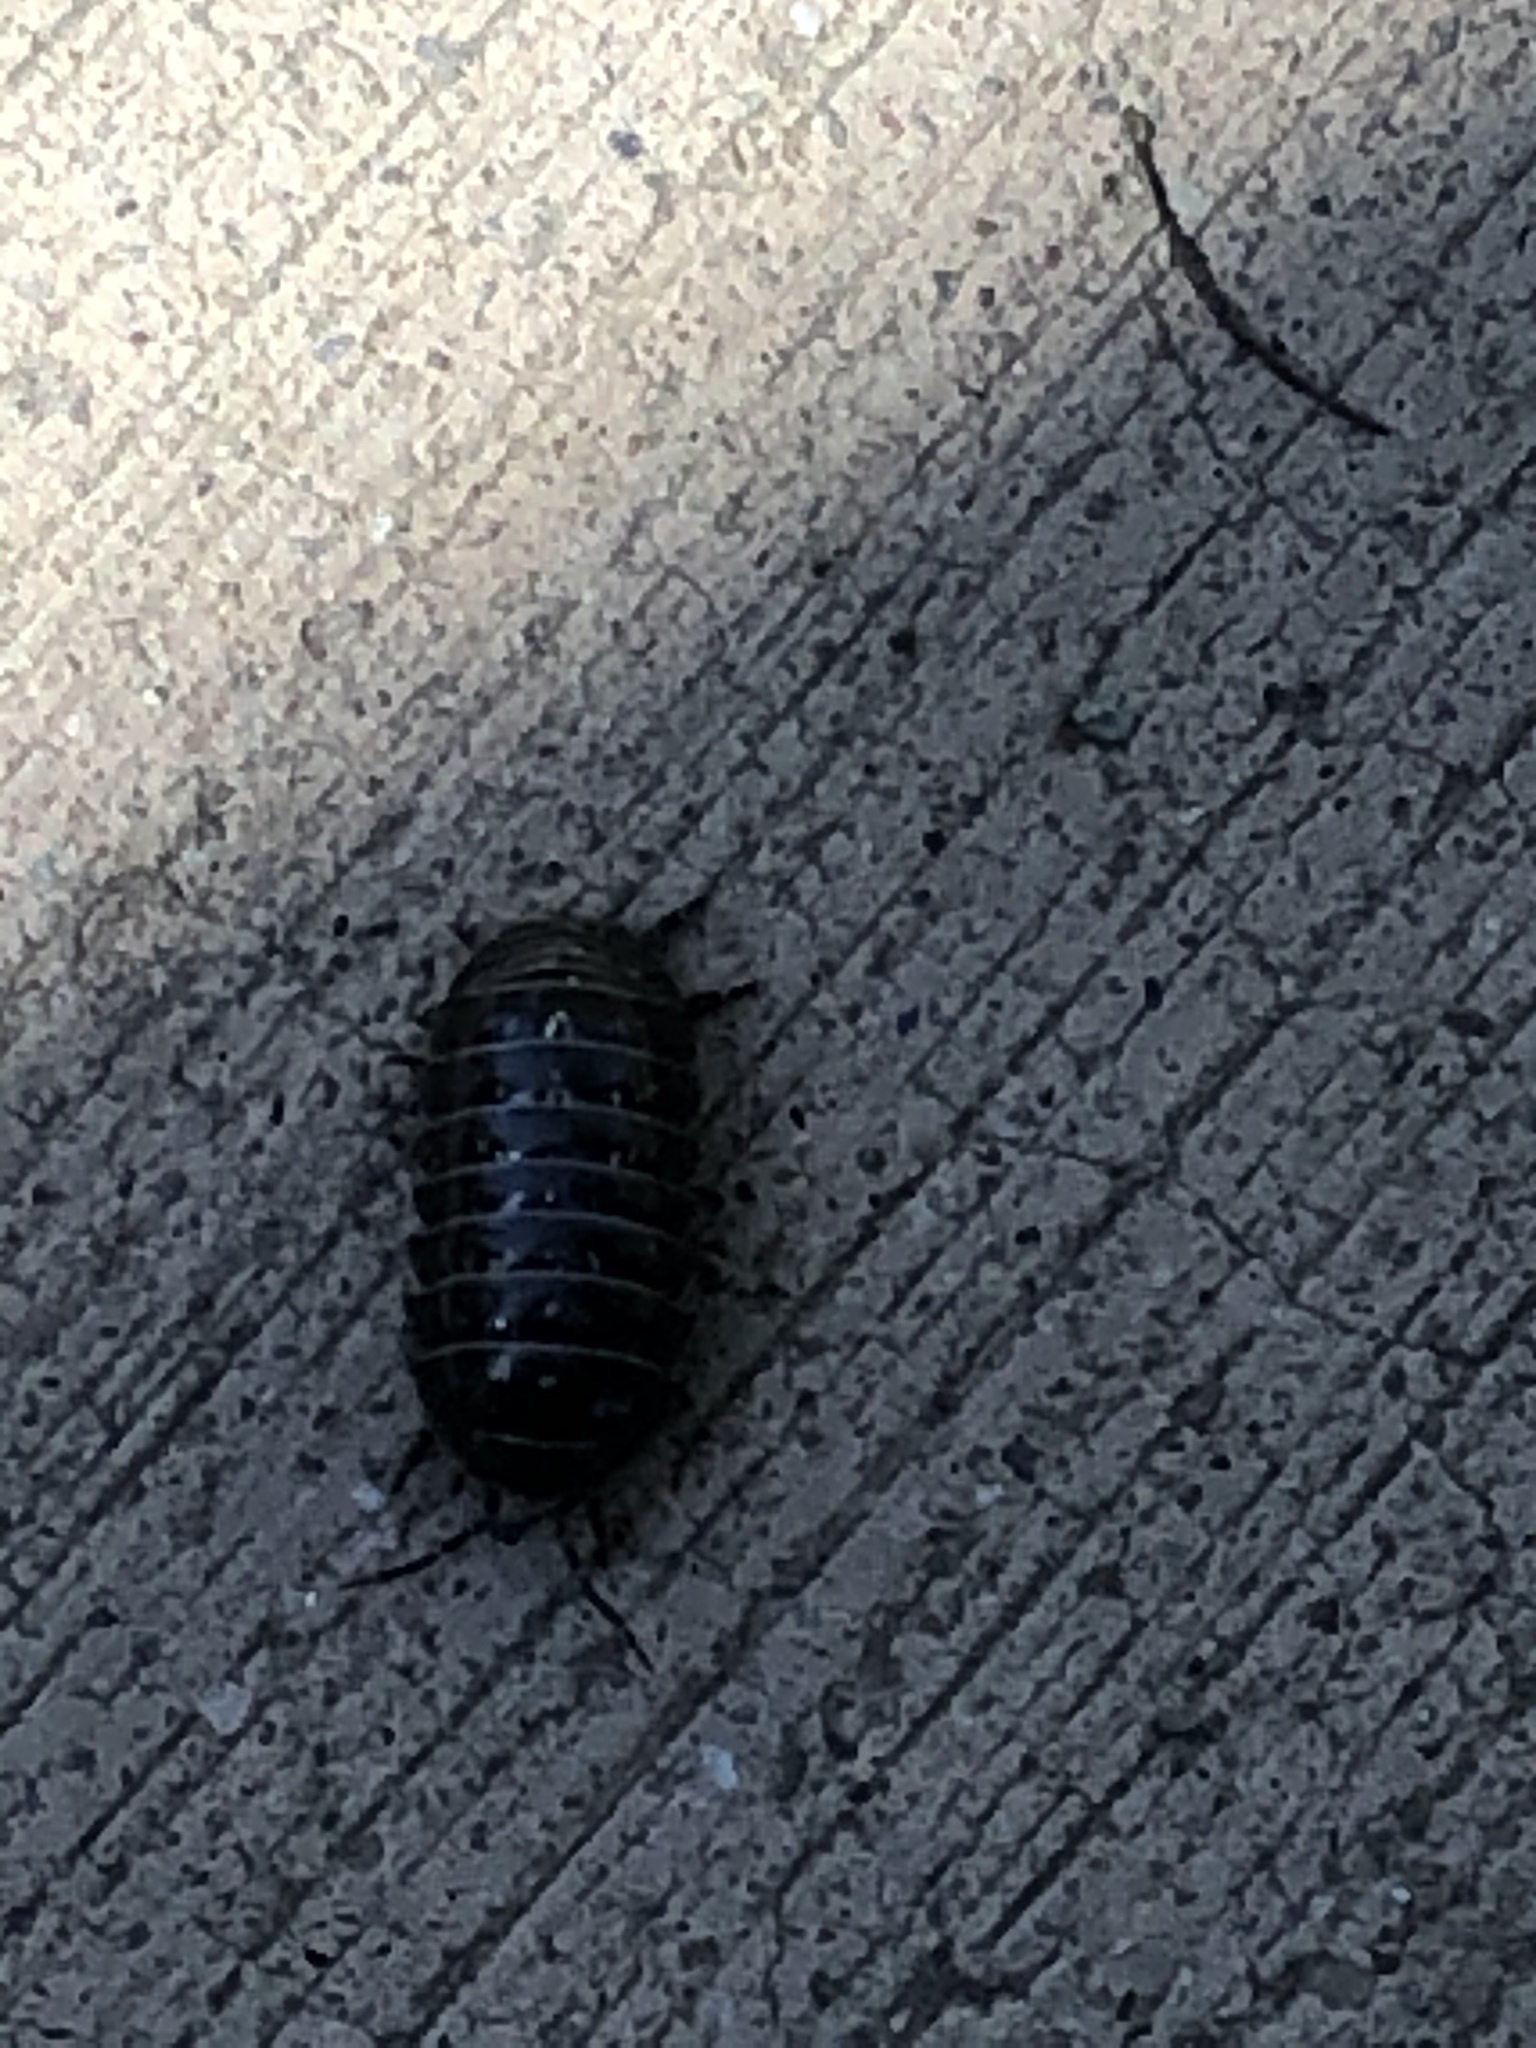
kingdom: Animalia
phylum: Arthropoda
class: Malacostraca
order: Isopoda
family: Armadillidiidae
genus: Armadillidium
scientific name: Armadillidium vulgare
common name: Common pill woodlouse
